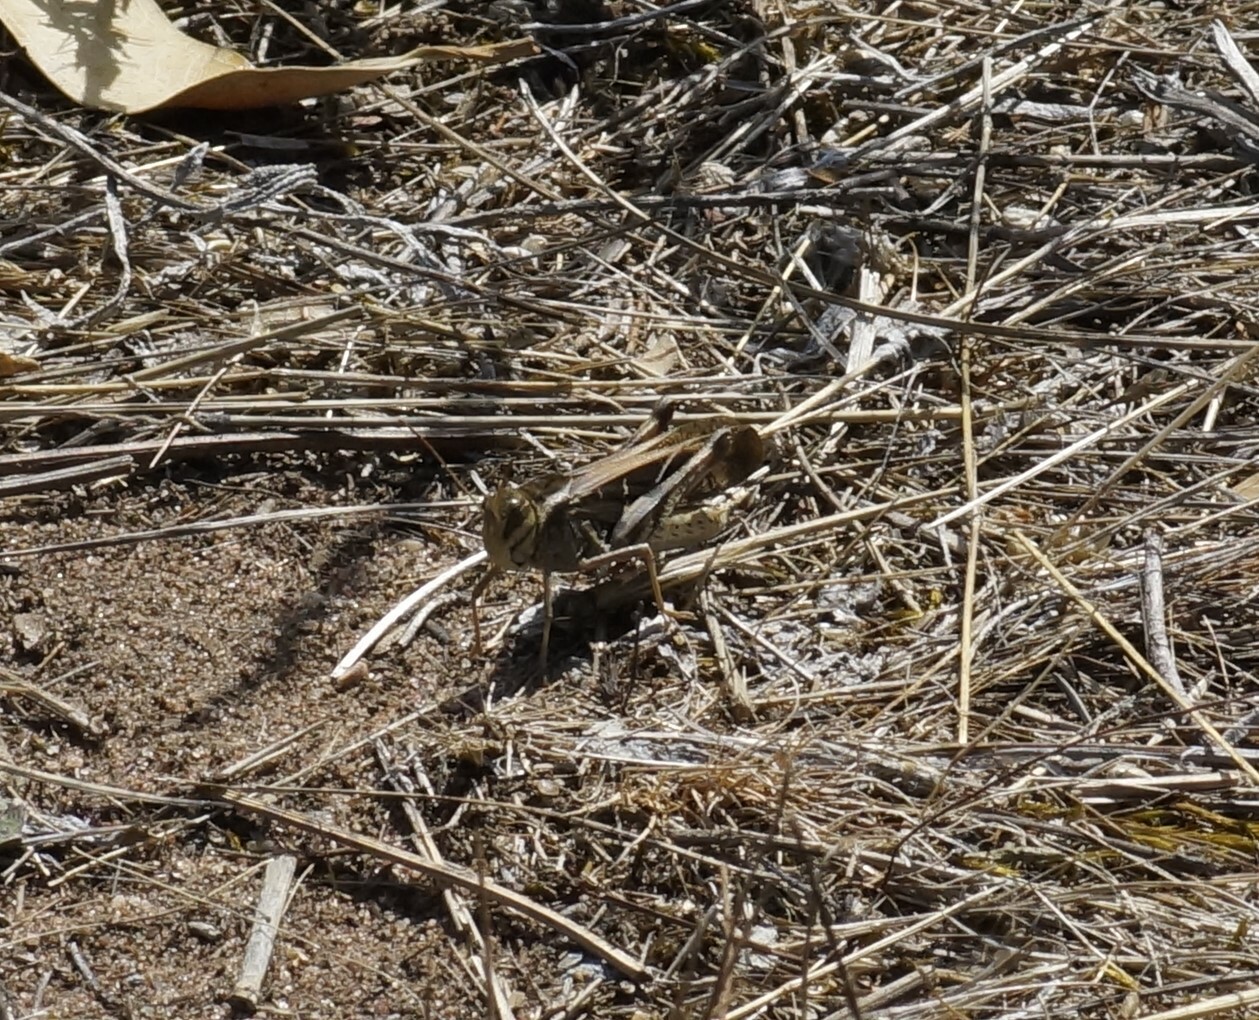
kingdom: Animalia
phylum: Arthropoda
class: Insecta
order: Orthoptera
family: Acrididae
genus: Gastrimargus
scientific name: Gastrimargus musicus
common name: Yellow-winged locust
